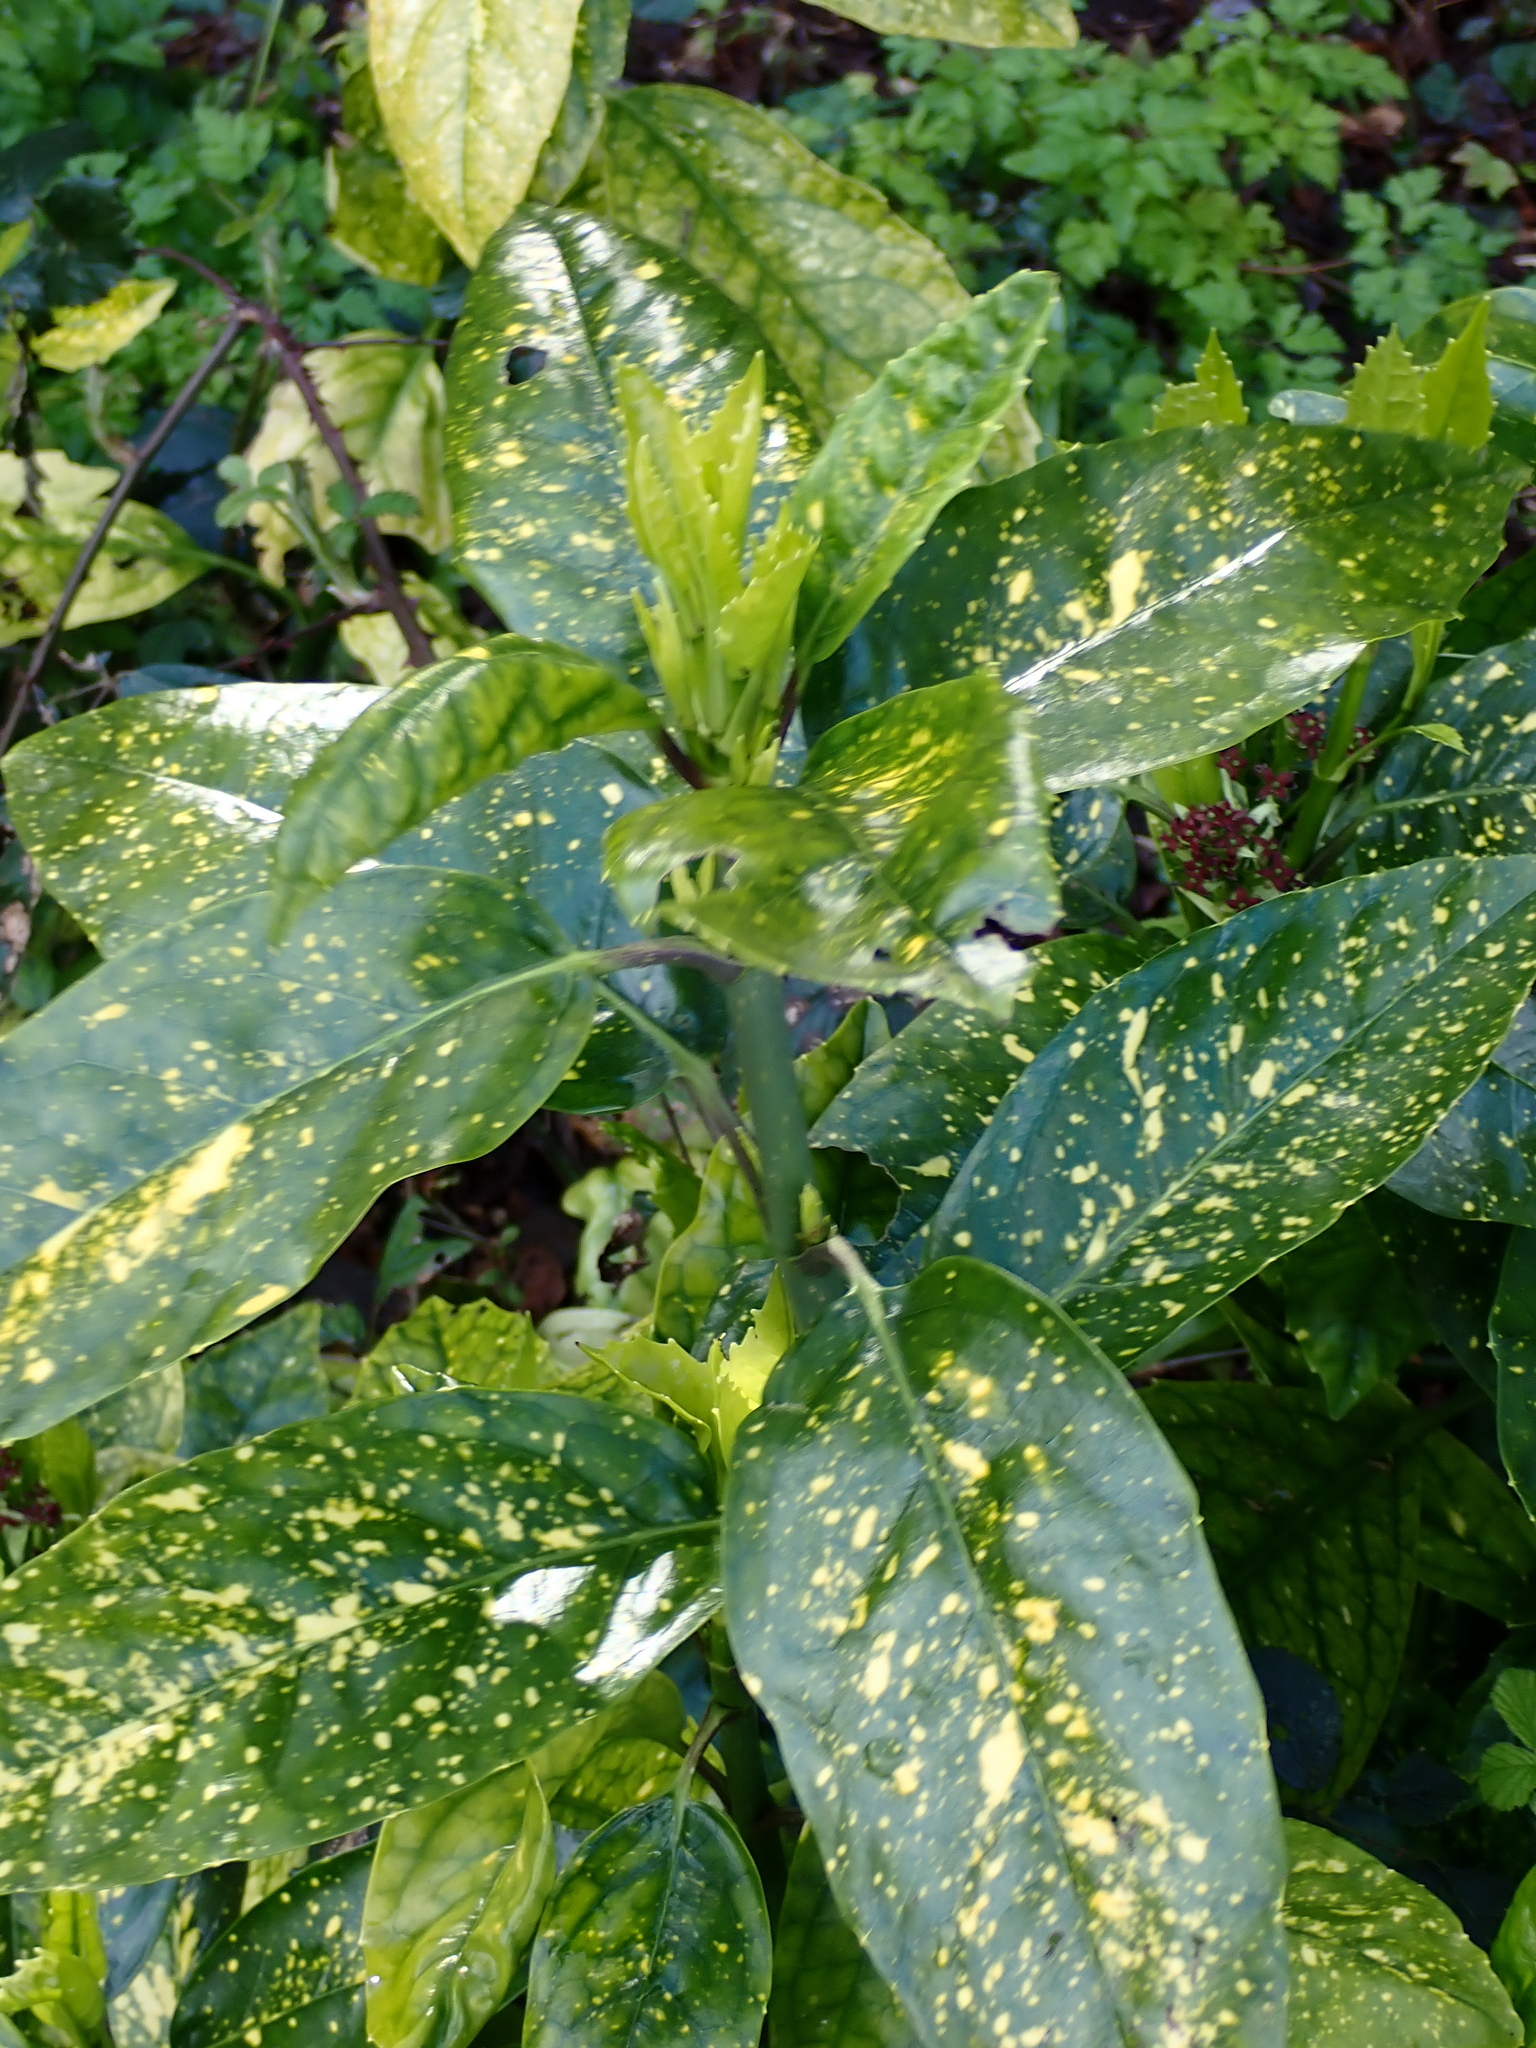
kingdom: Plantae
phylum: Tracheophyta
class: Magnoliopsida
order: Garryales
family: Garryaceae
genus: Aucuba
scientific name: Aucuba japonica
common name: Spotted-laurel
